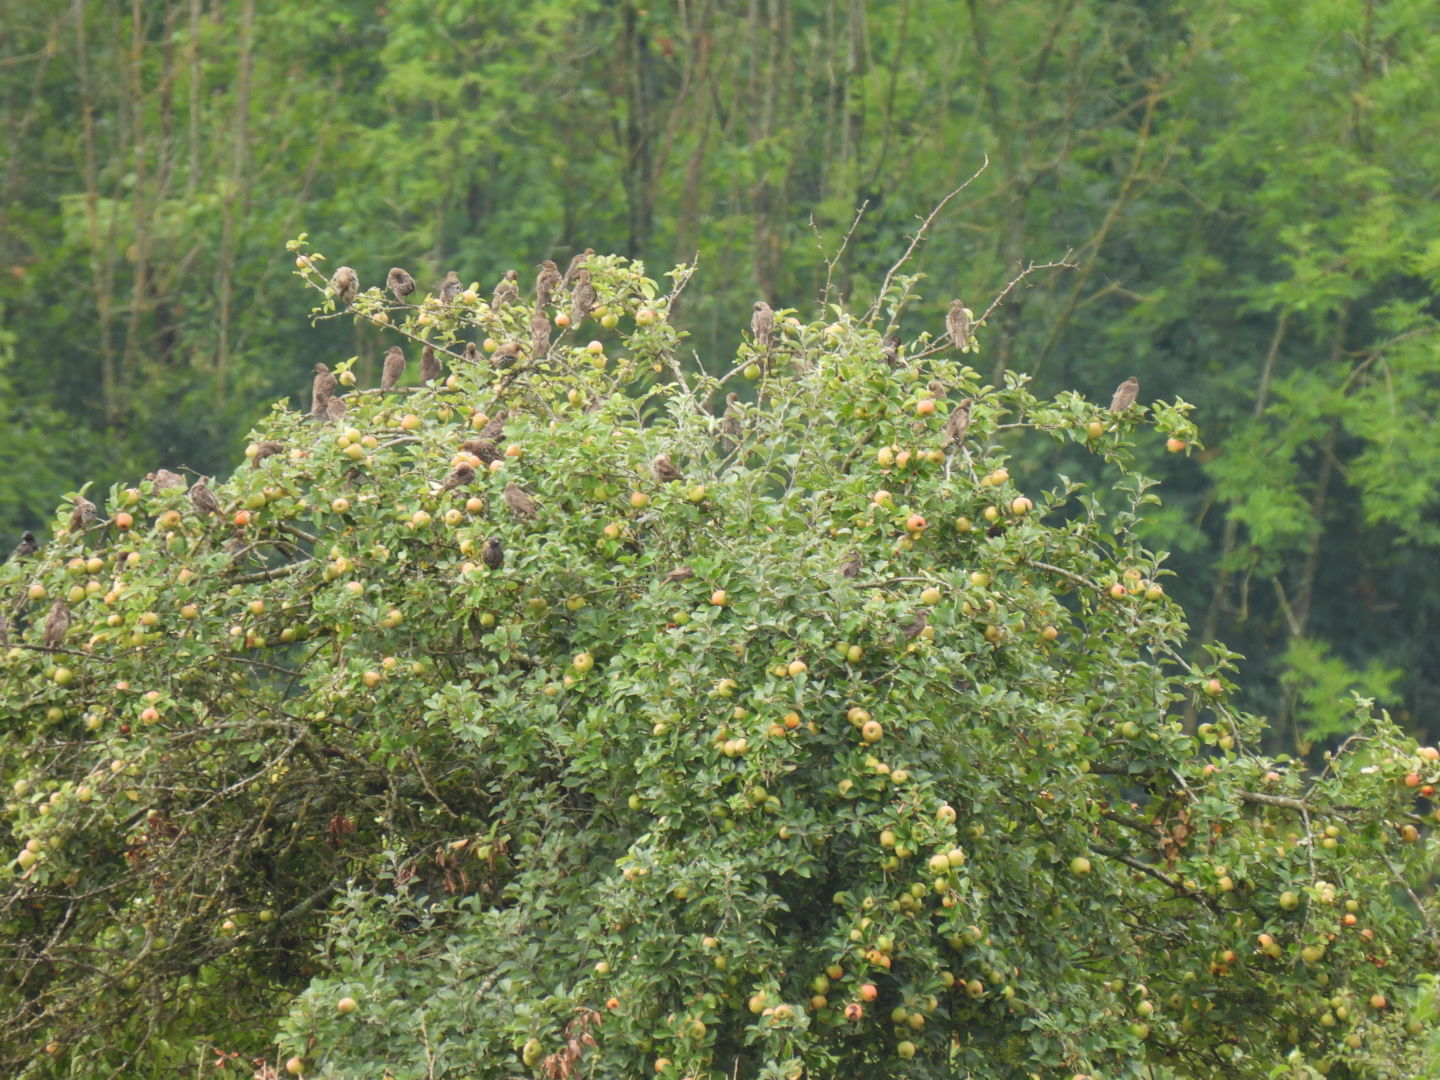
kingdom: Animalia
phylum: Chordata
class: Aves
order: Passeriformes
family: Sturnidae
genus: Sturnus
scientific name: Sturnus vulgaris
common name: Common starling
